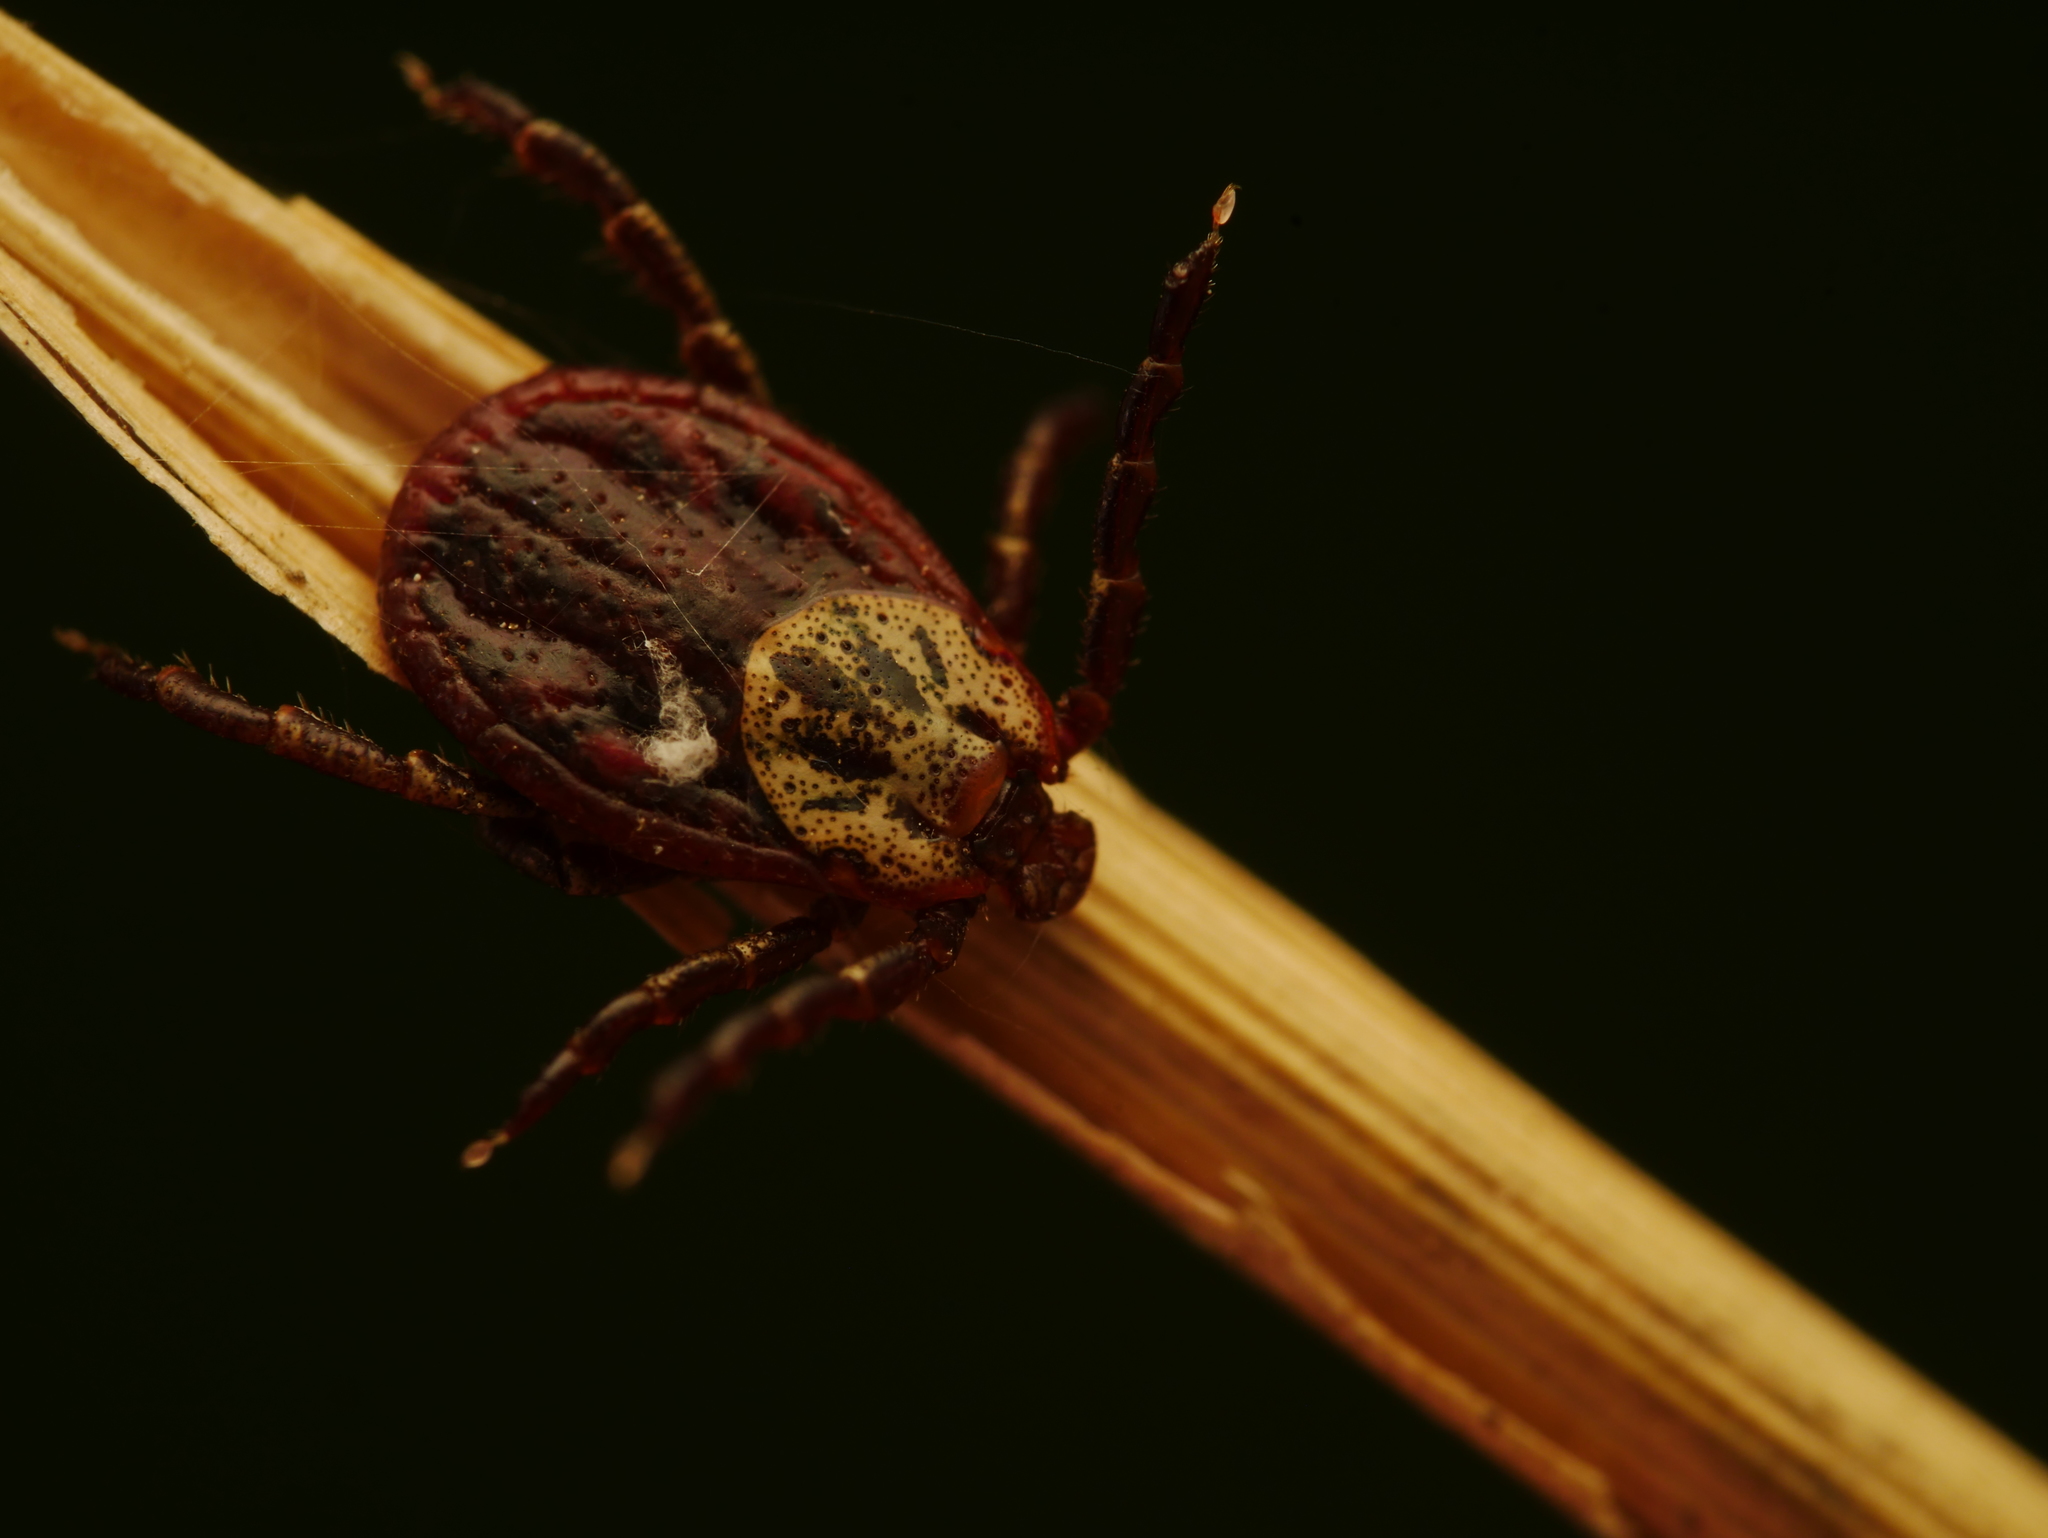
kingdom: Animalia
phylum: Arthropoda
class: Arachnida
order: Ixodida
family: Ixodidae
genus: Dermacentor
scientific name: Dermacentor reticulatus
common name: Ornate cow tick
